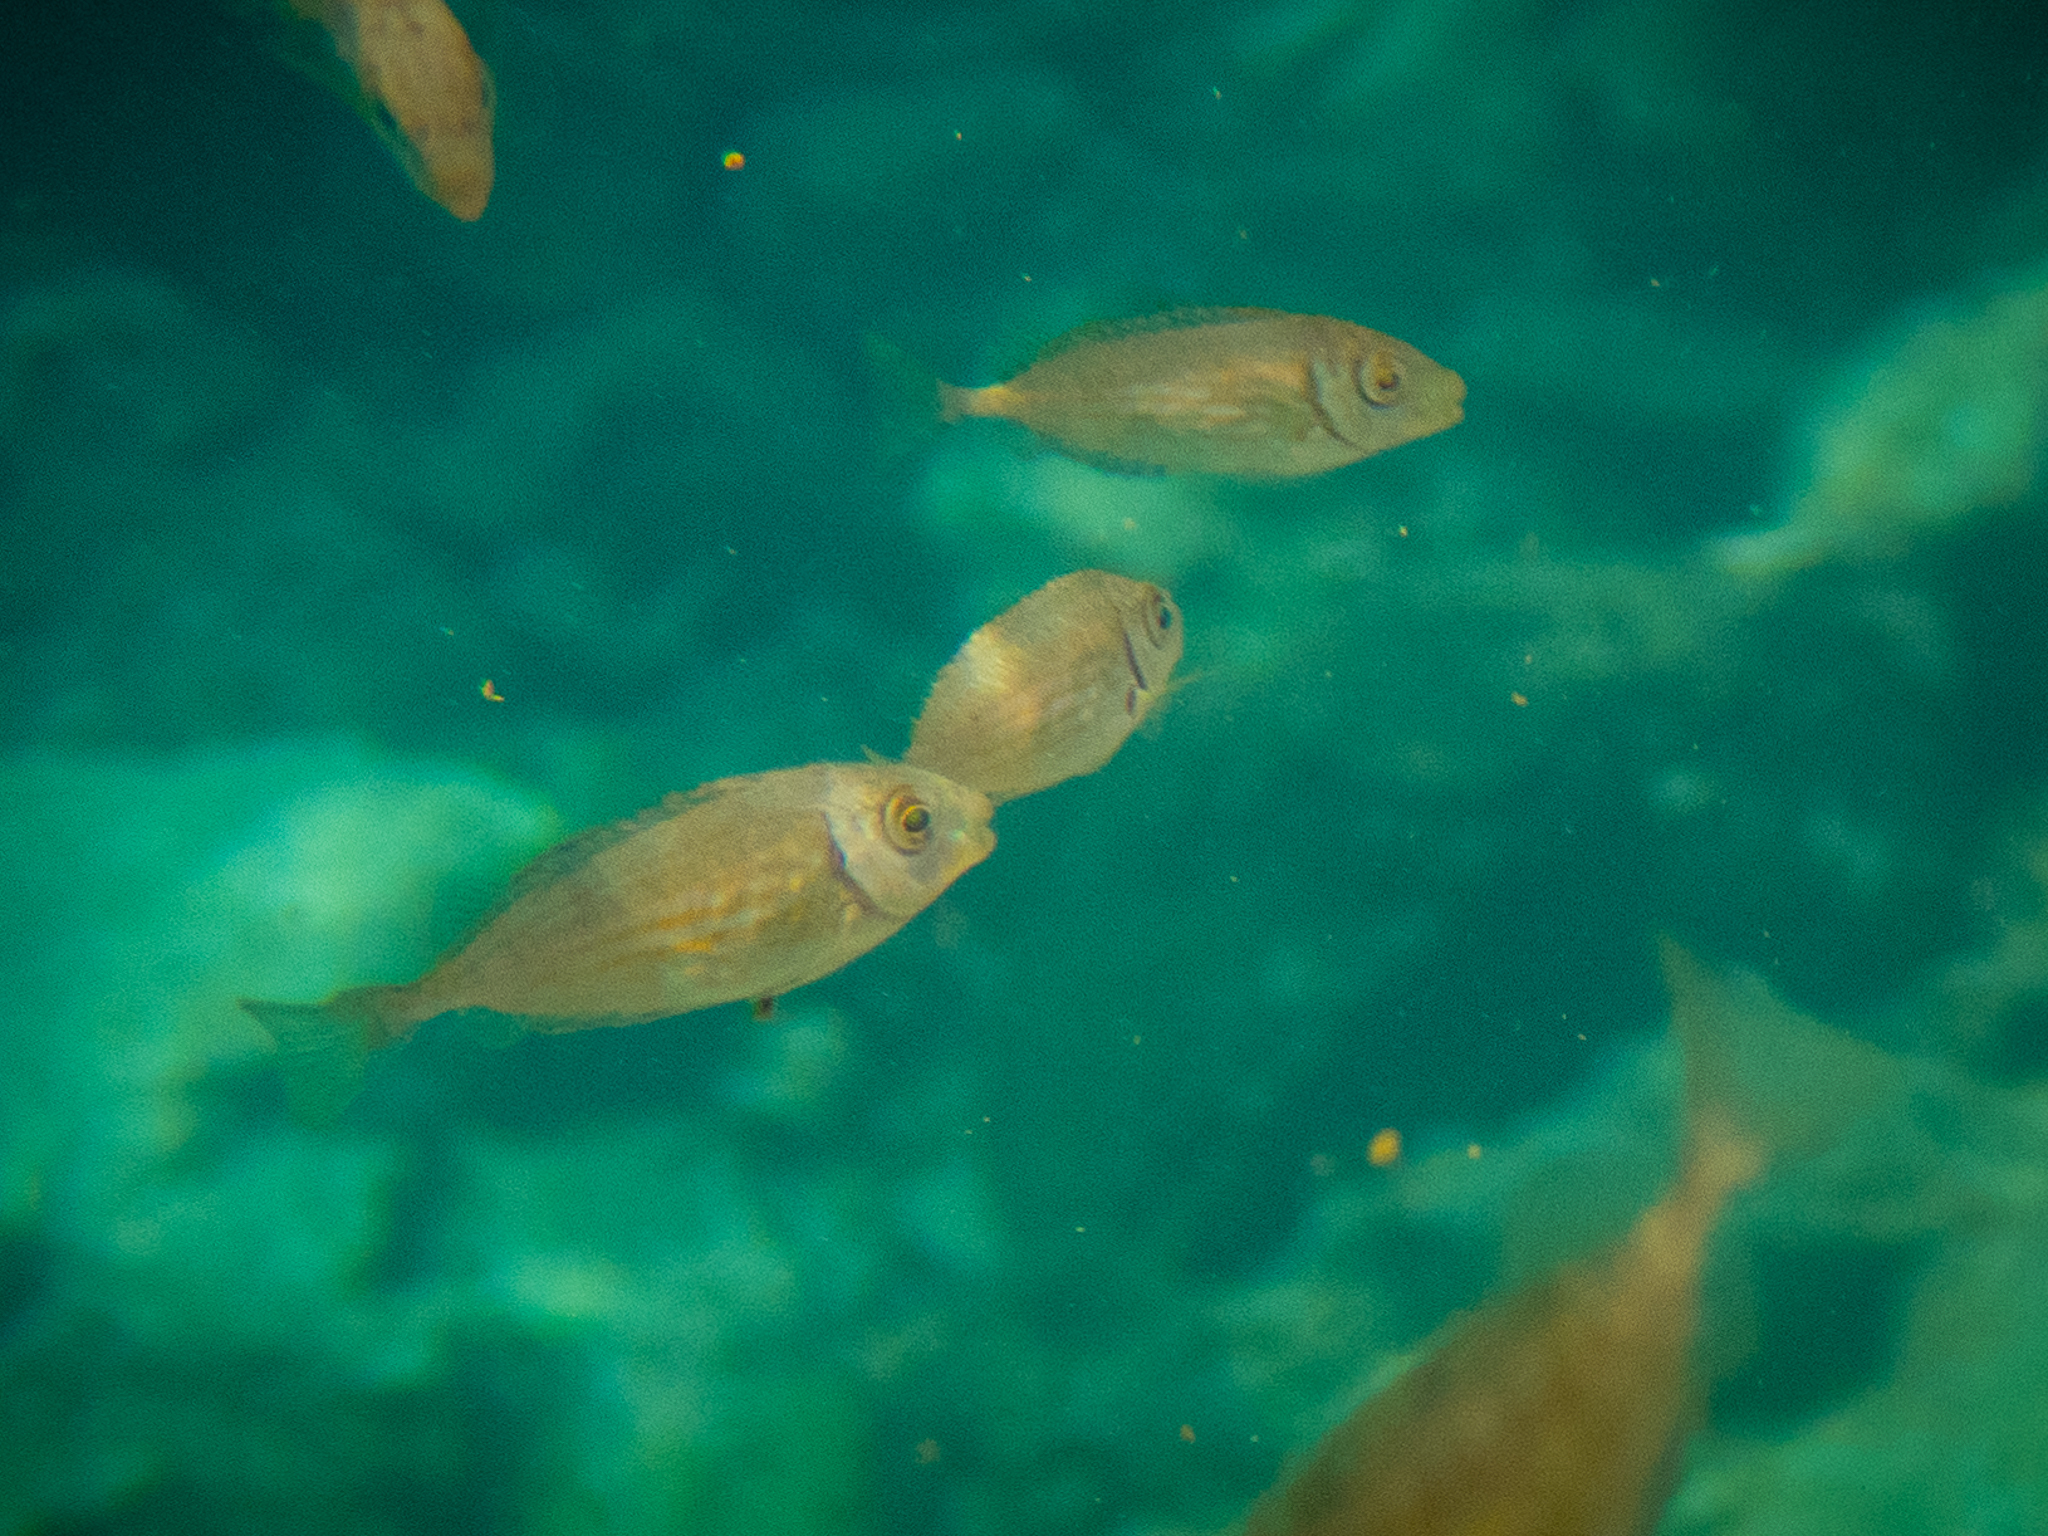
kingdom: Animalia
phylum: Chordata
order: Perciformes
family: Siganidae
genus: Siganus
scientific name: Siganus rivulatus
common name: Marbled spinefoot
